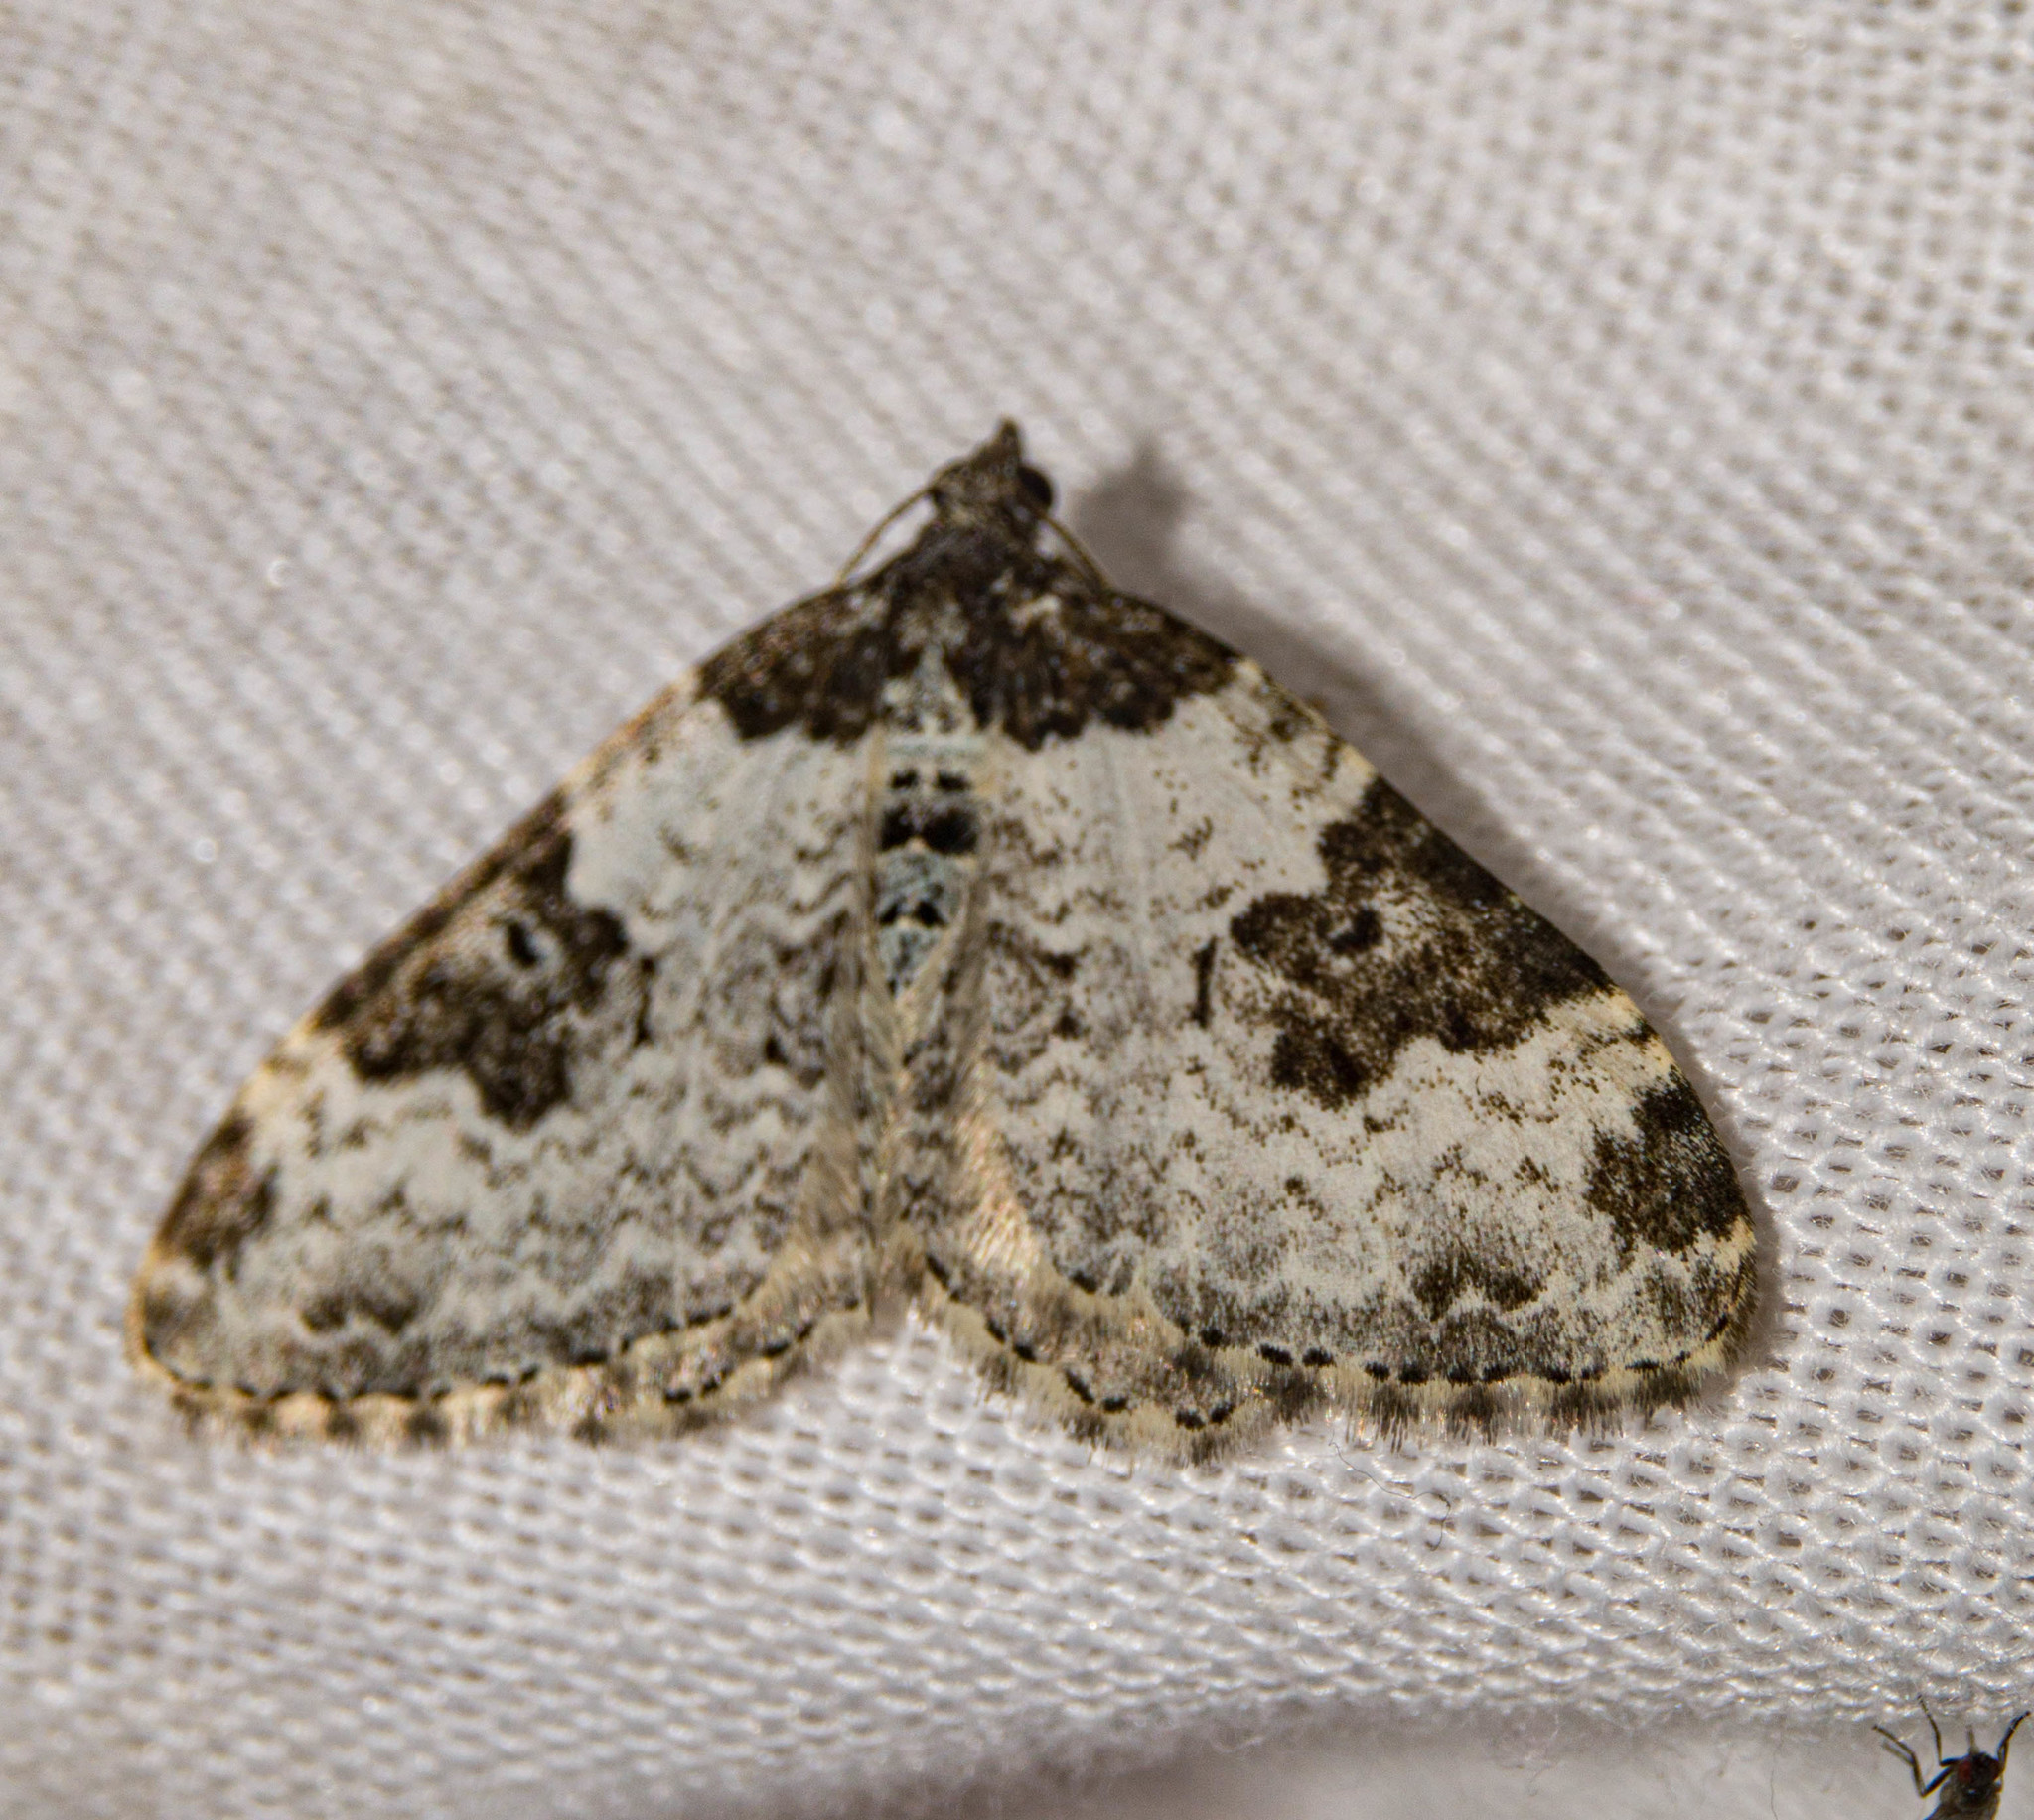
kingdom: Animalia
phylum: Arthropoda
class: Insecta
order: Lepidoptera
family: Geometridae
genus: Xanthorhoe
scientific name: Xanthorhoe fluctuata
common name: Garden carpet
